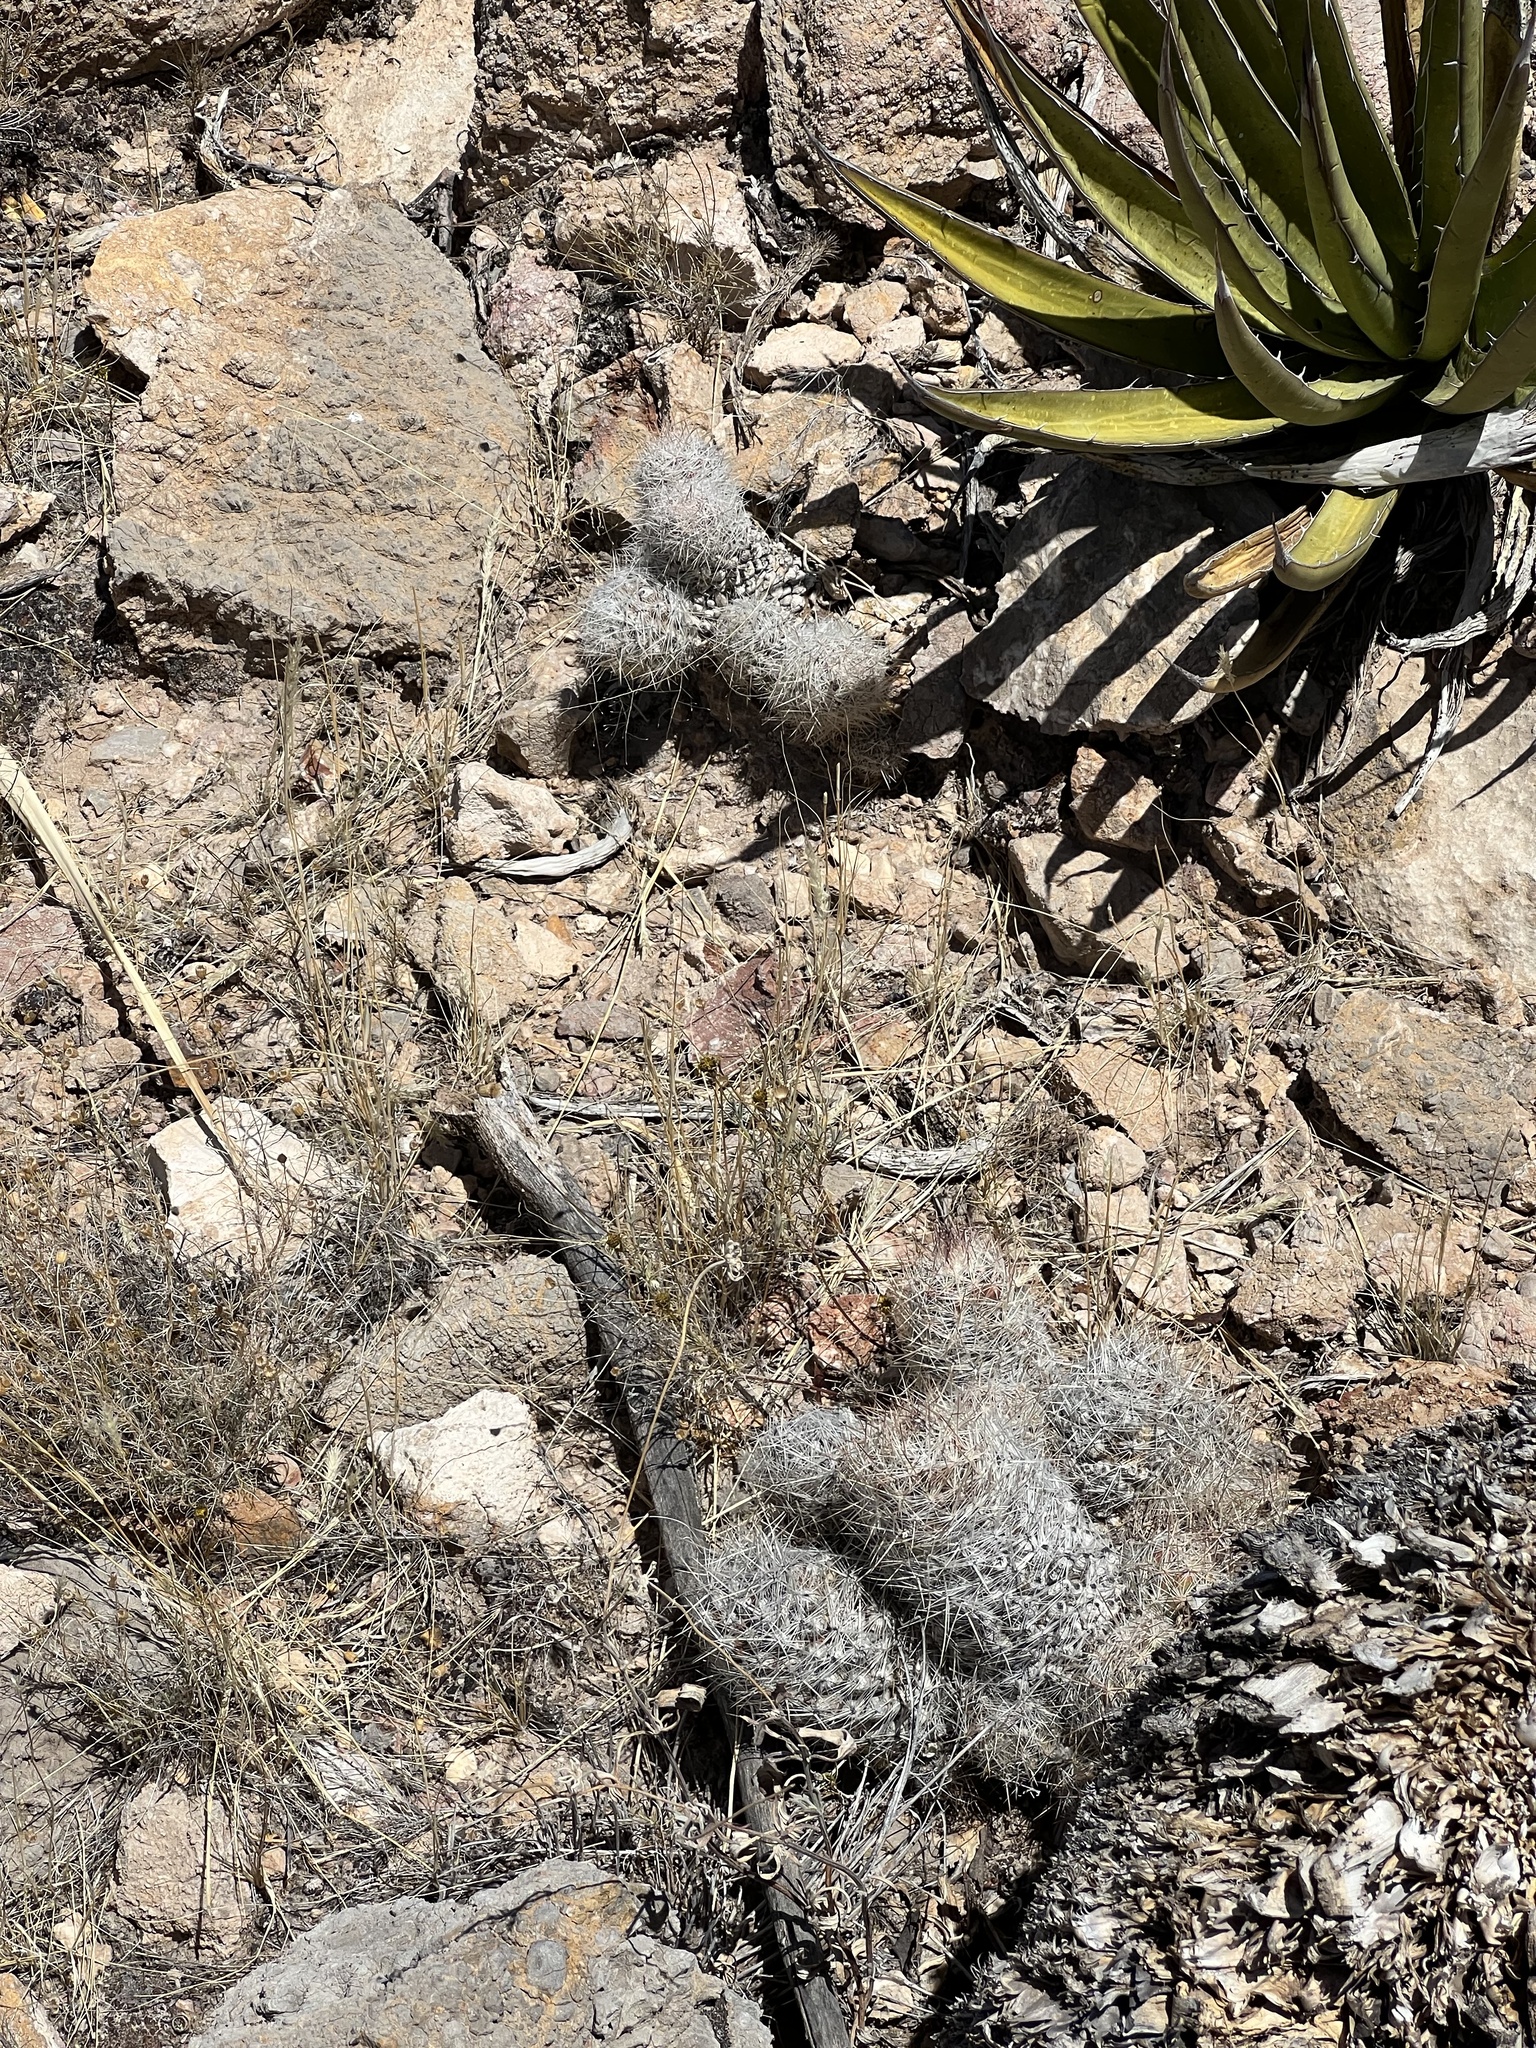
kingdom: Plantae
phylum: Tracheophyta
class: Magnoliopsida
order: Caryophyllales
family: Cactaceae
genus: Pelecyphora
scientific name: Pelecyphora tuberculosa
